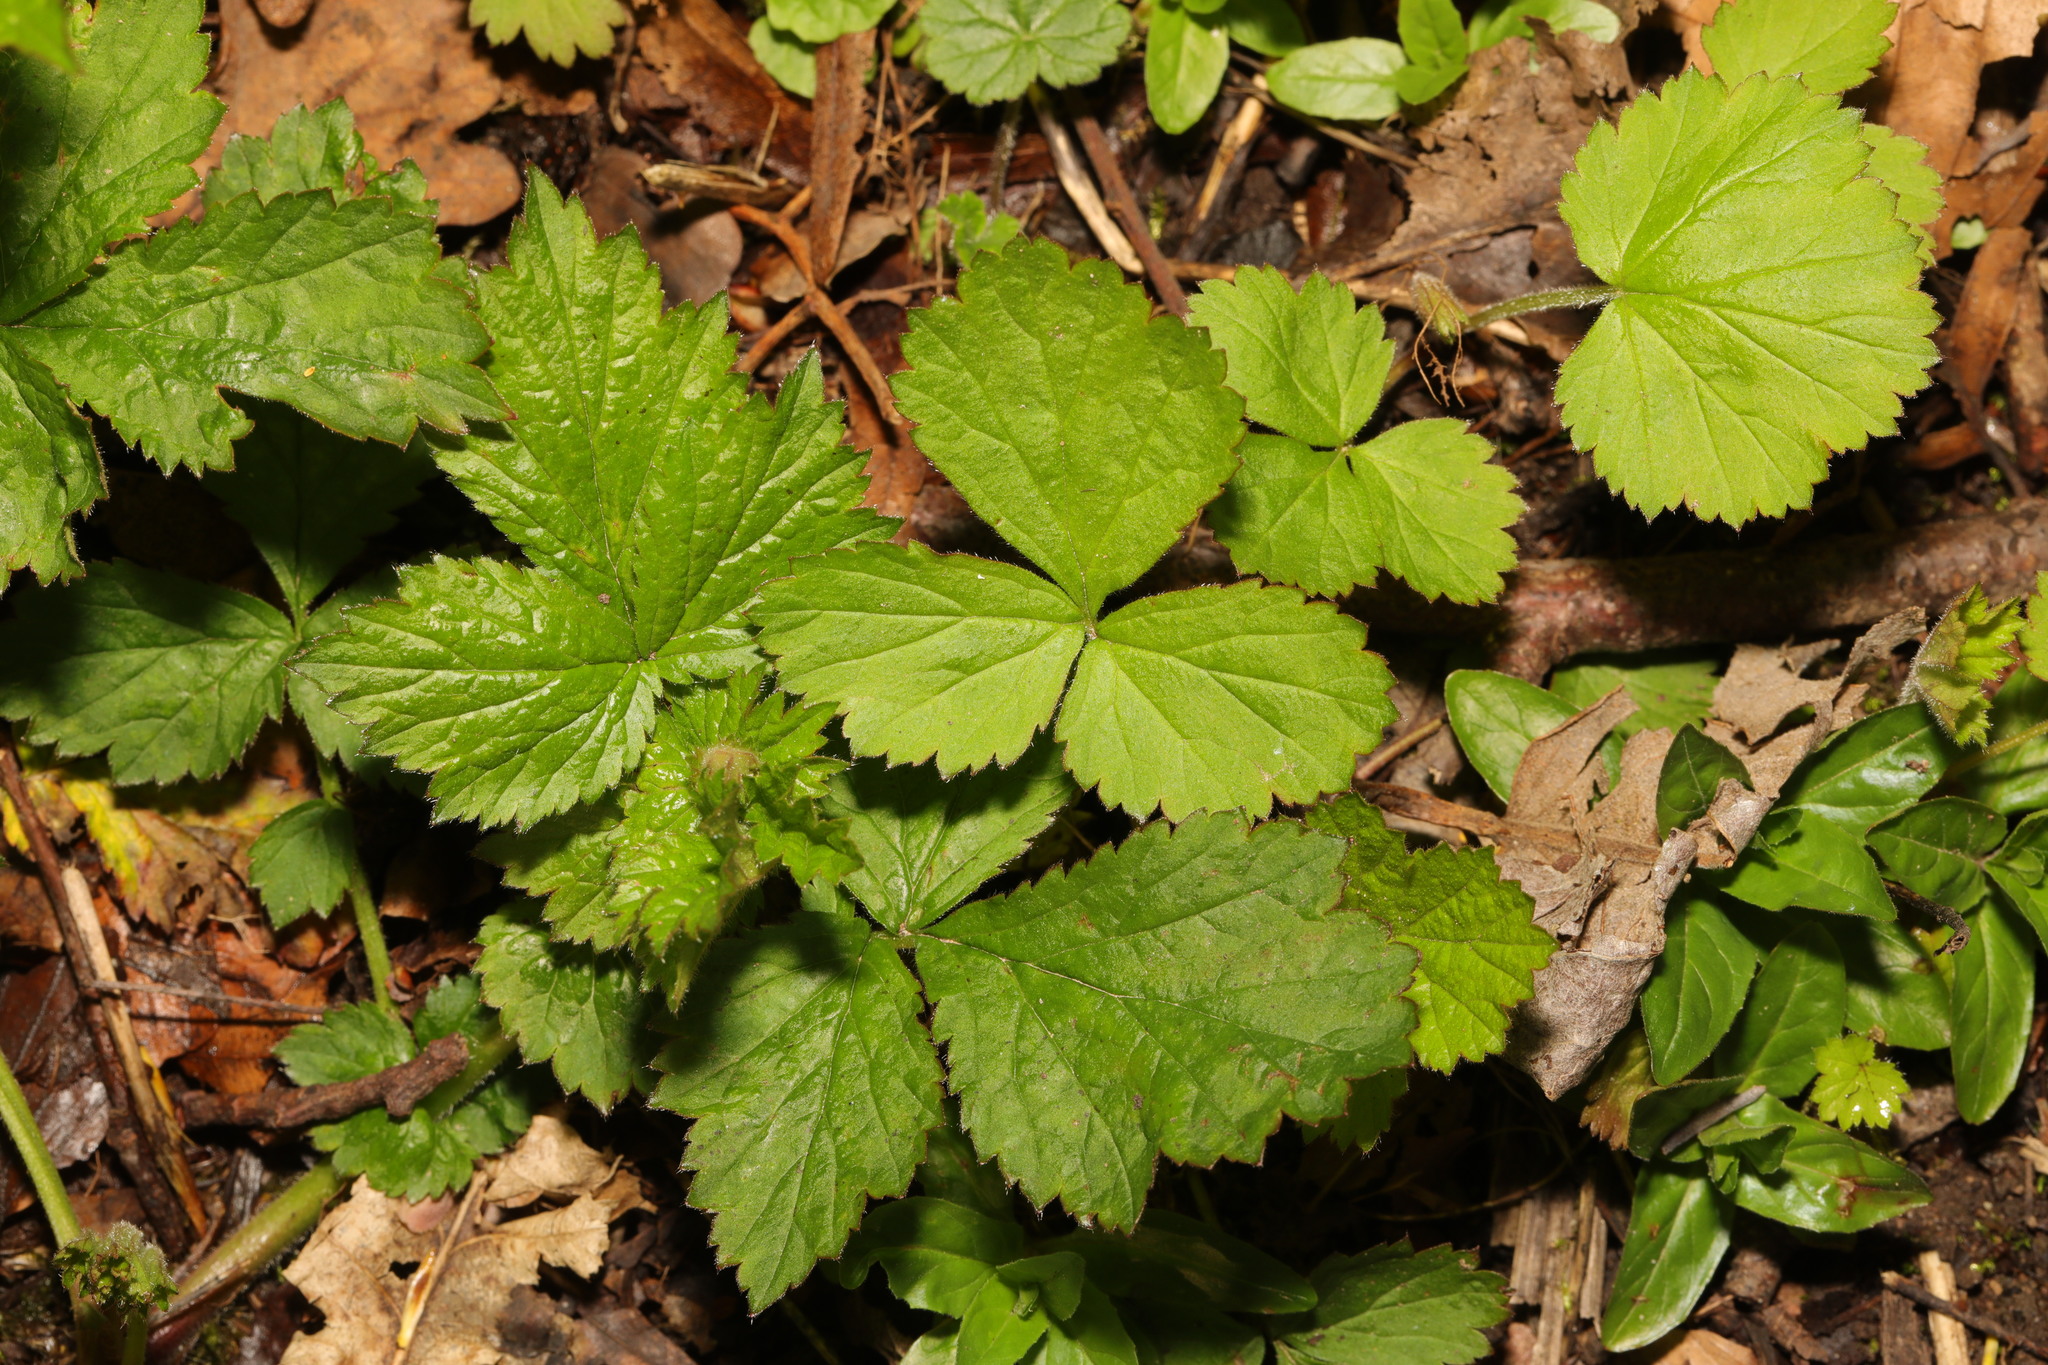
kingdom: Plantae
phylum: Tracheophyta
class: Magnoliopsida
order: Rosales
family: Rosaceae
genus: Geum
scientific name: Geum urbanum
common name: Wood avens
